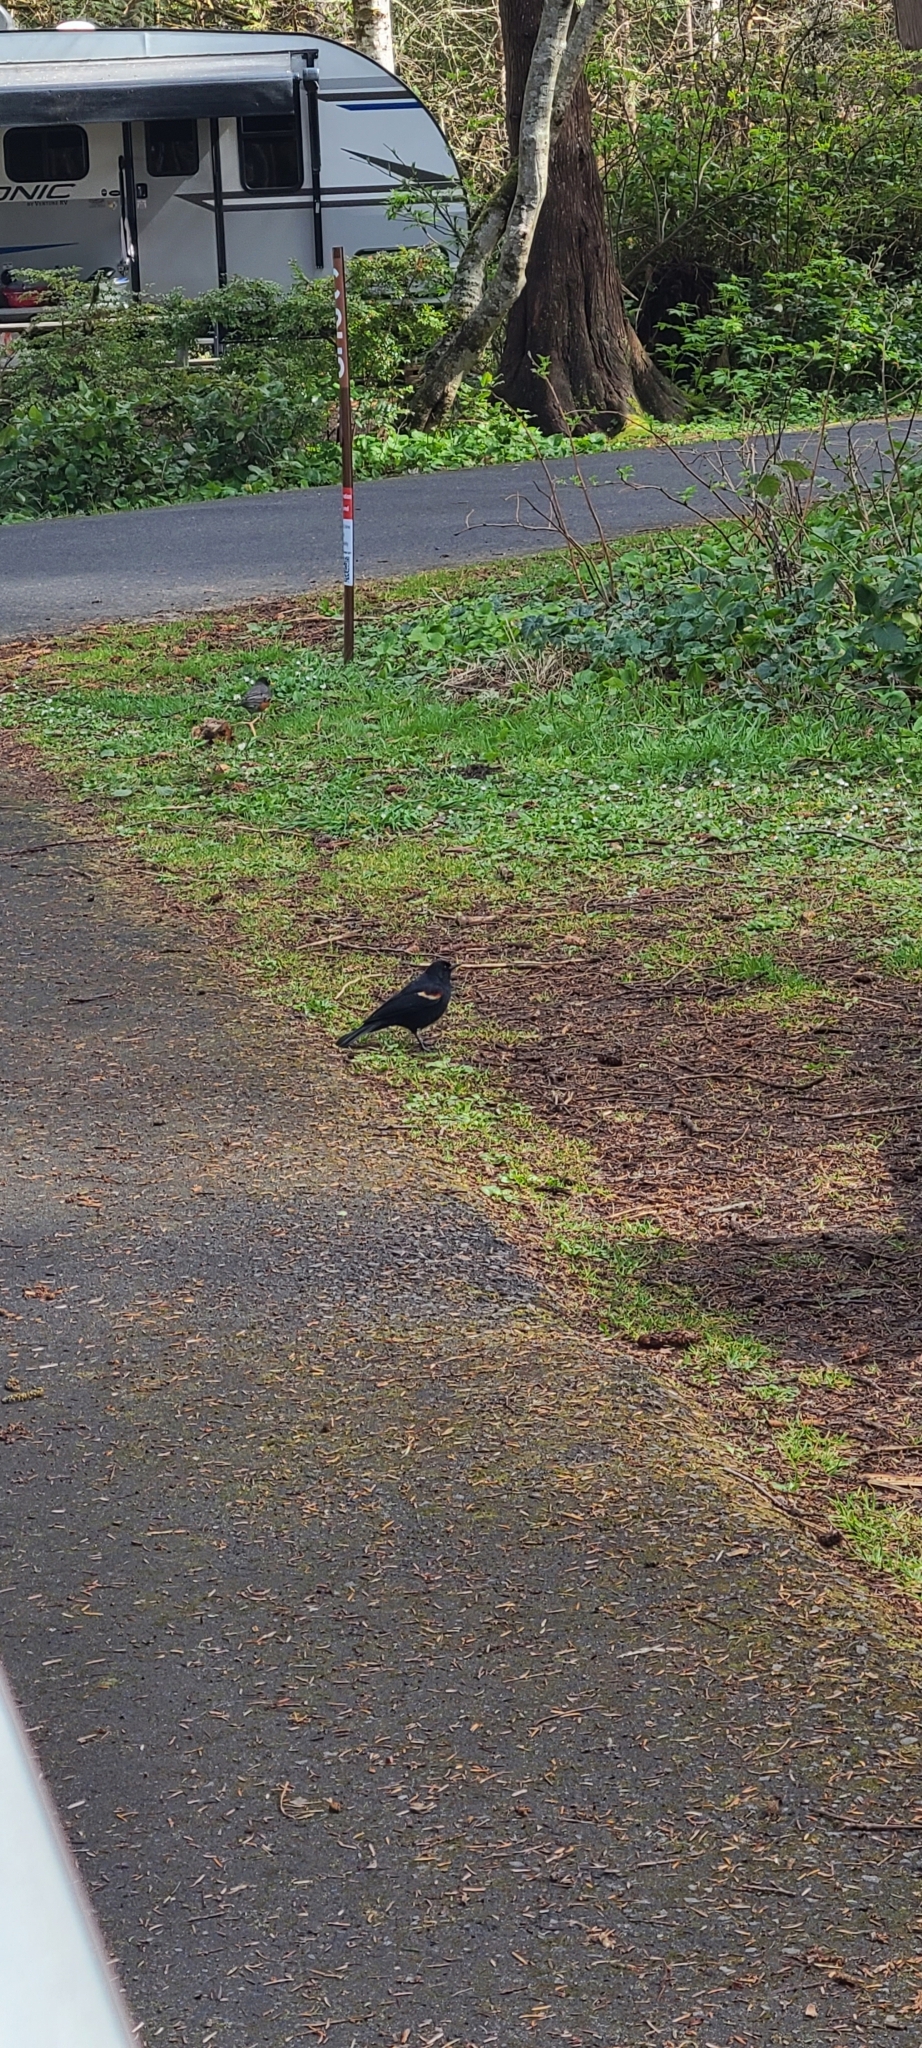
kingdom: Animalia
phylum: Chordata
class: Aves
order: Passeriformes
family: Icteridae
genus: Agelaius
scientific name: Agelaius phoeniceus
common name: Red-winged blackbird
